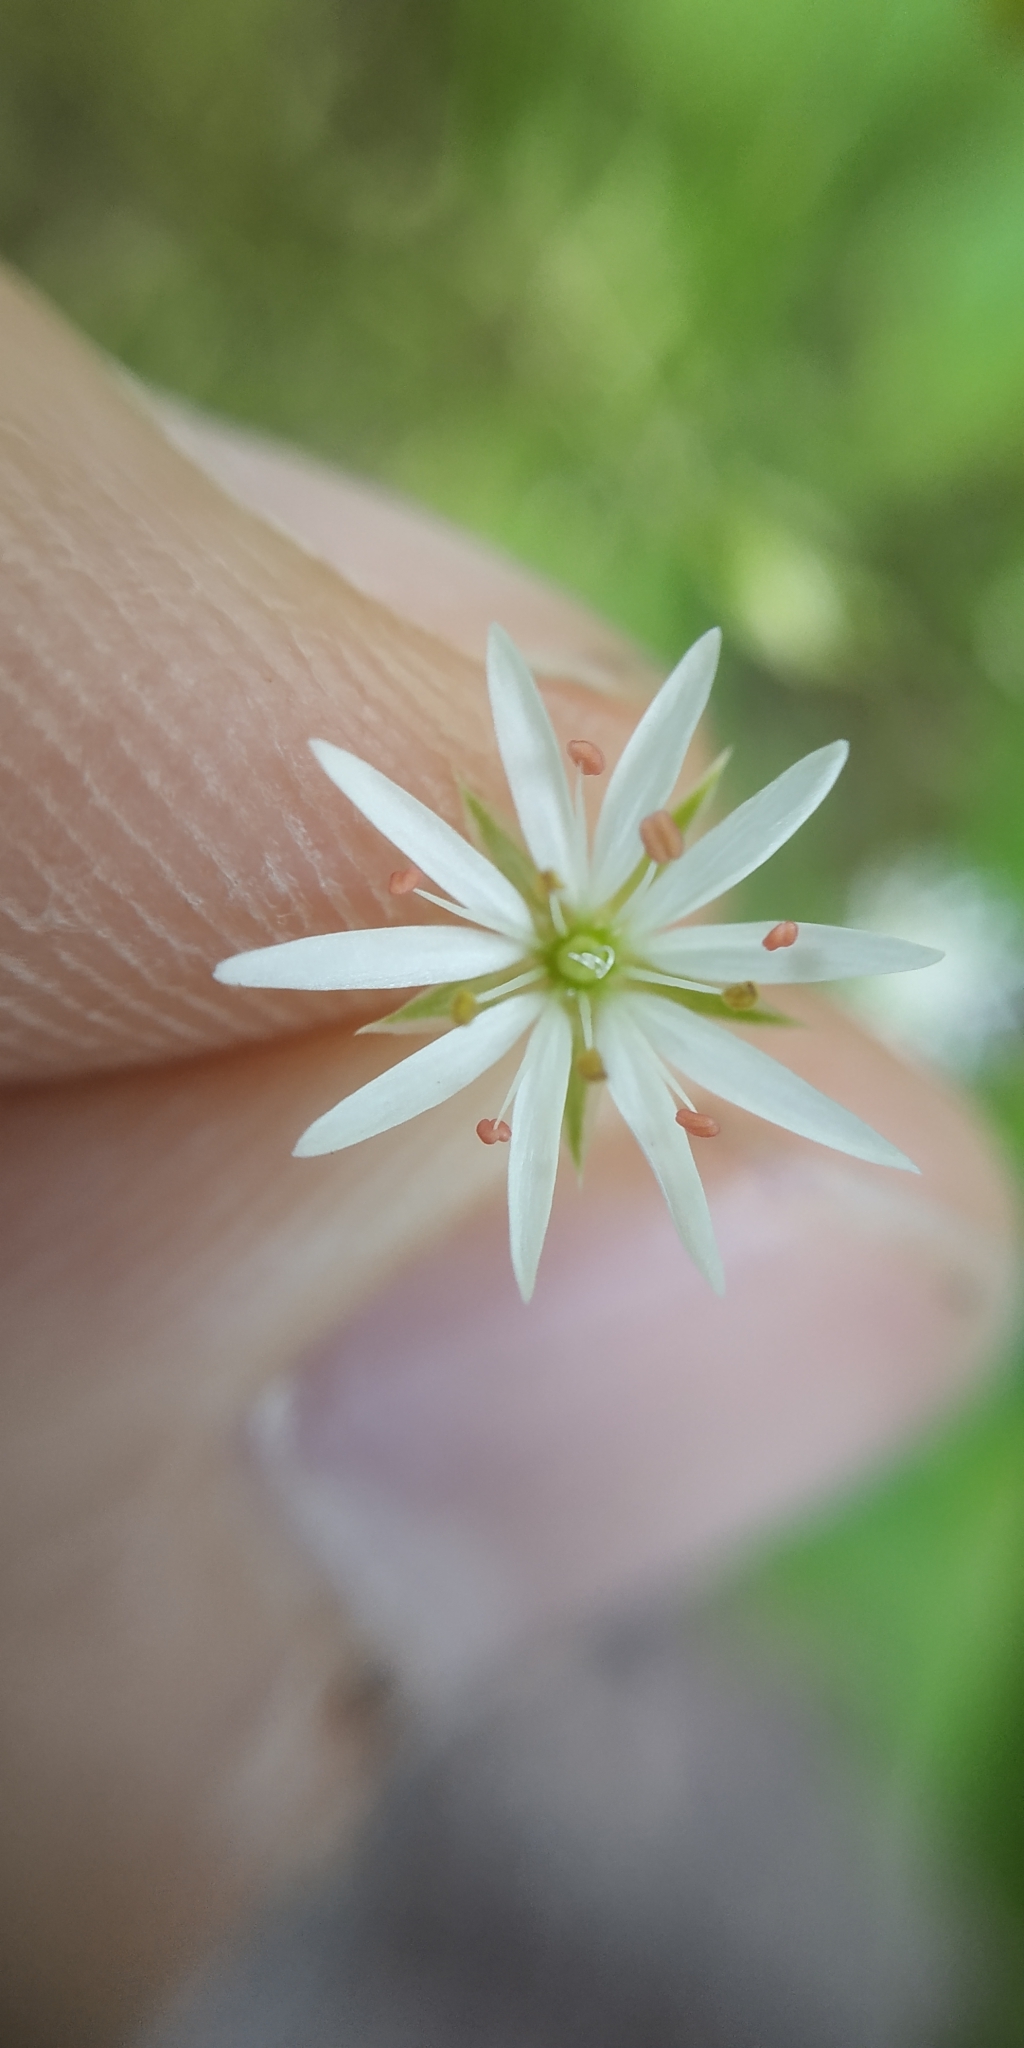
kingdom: Plantae
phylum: Tracheophyta
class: Magnoliopsida
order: Caryophyllales
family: Caryophyllaceae
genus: Stellaria
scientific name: Stellaria graminea
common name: Grass-like starwort
